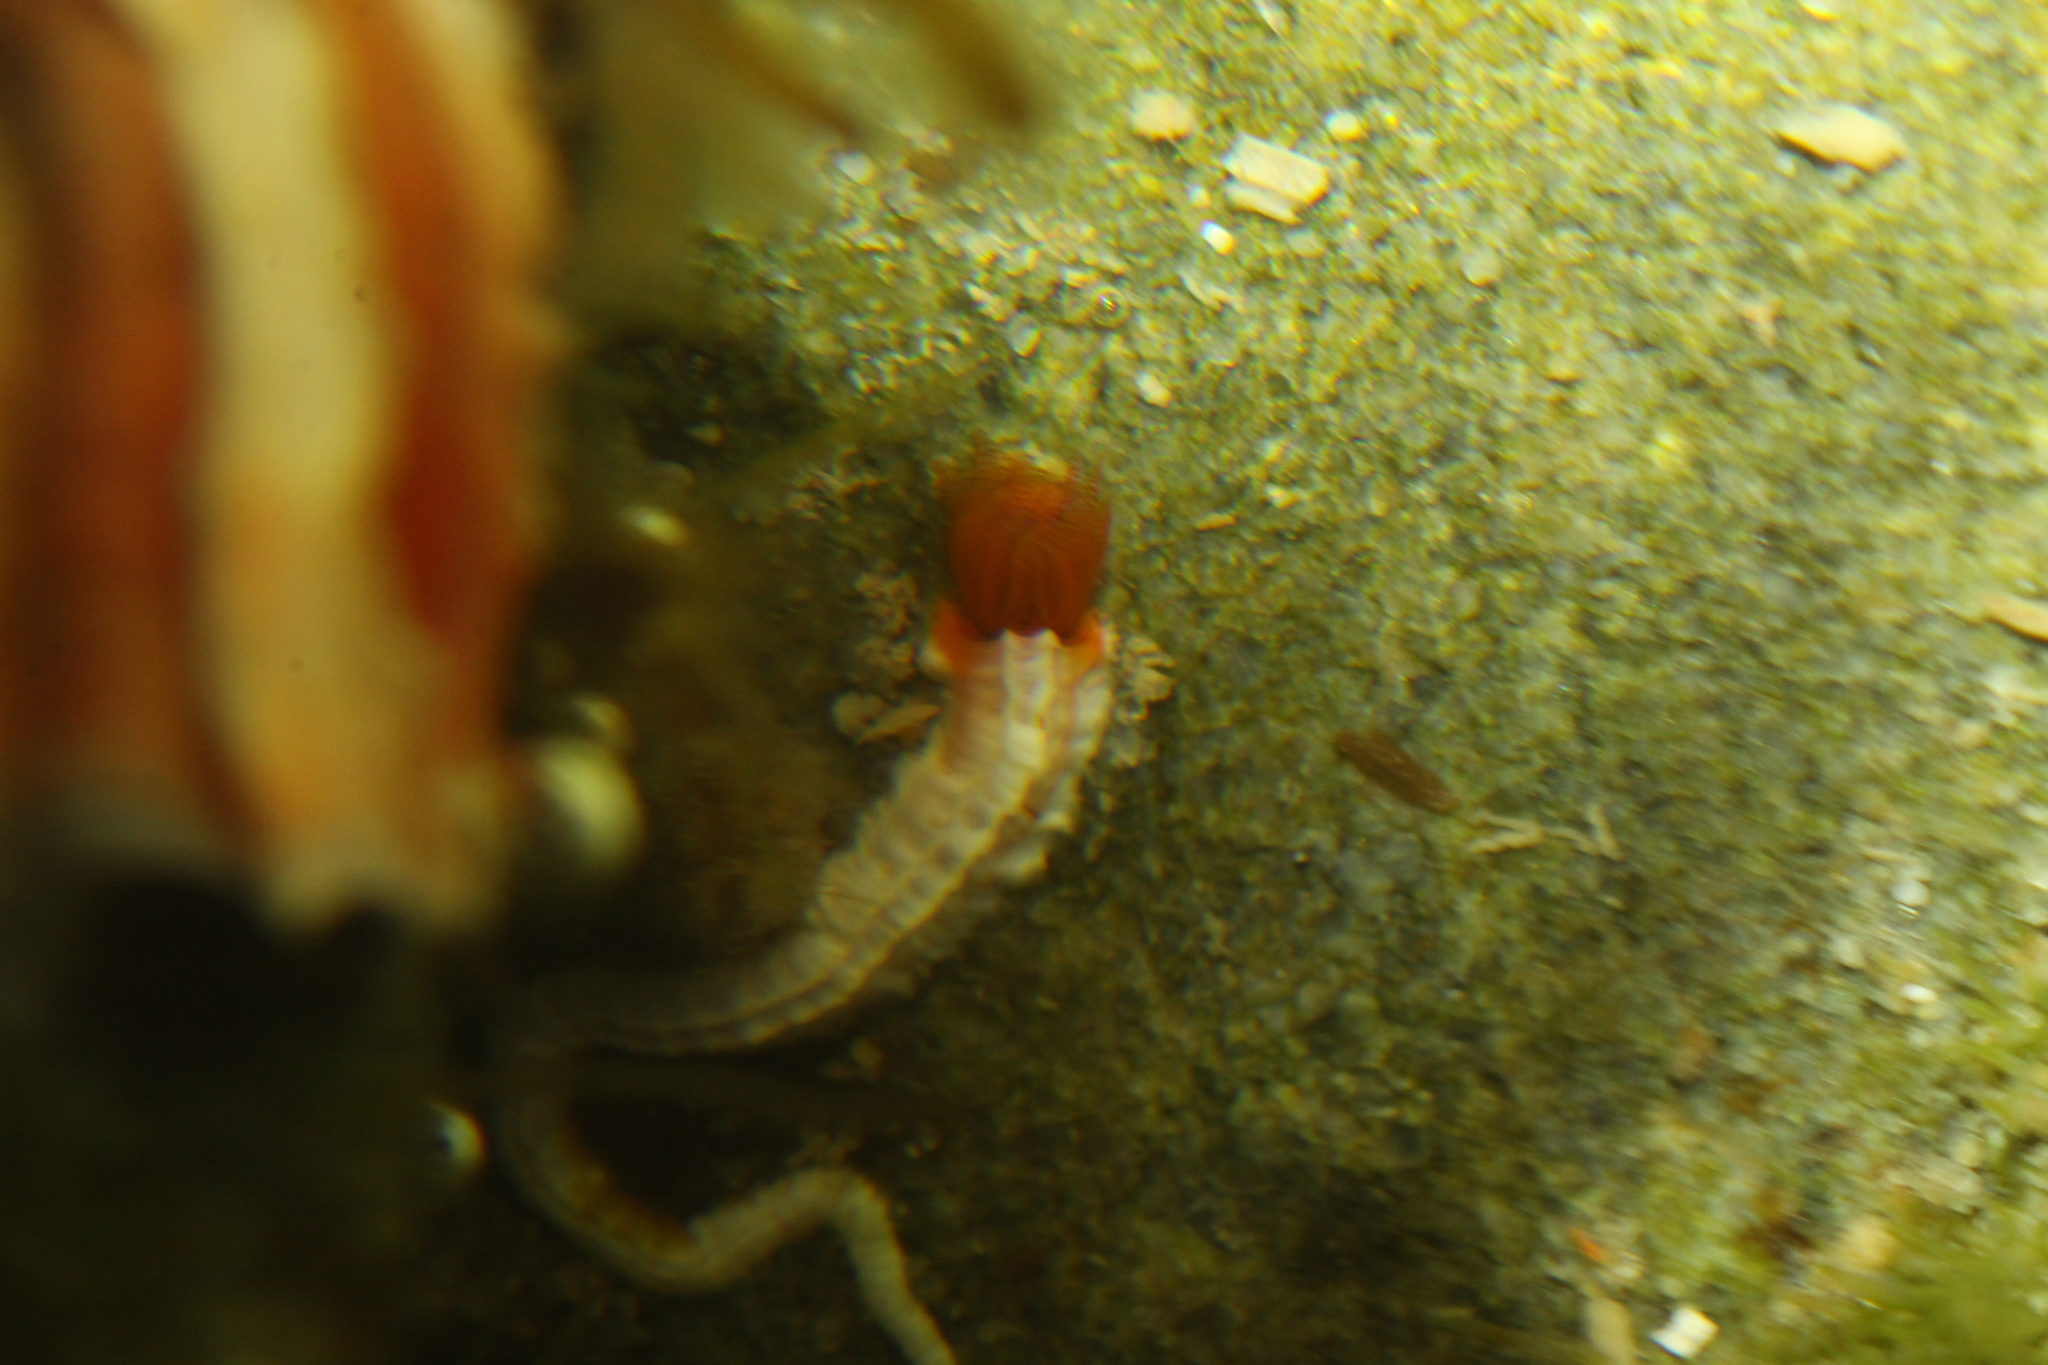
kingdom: Animalia
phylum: Annelida
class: Polychaeta
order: Sabellida
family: Serpulidae
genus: Galeolaria
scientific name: Galeolaria hystrix
